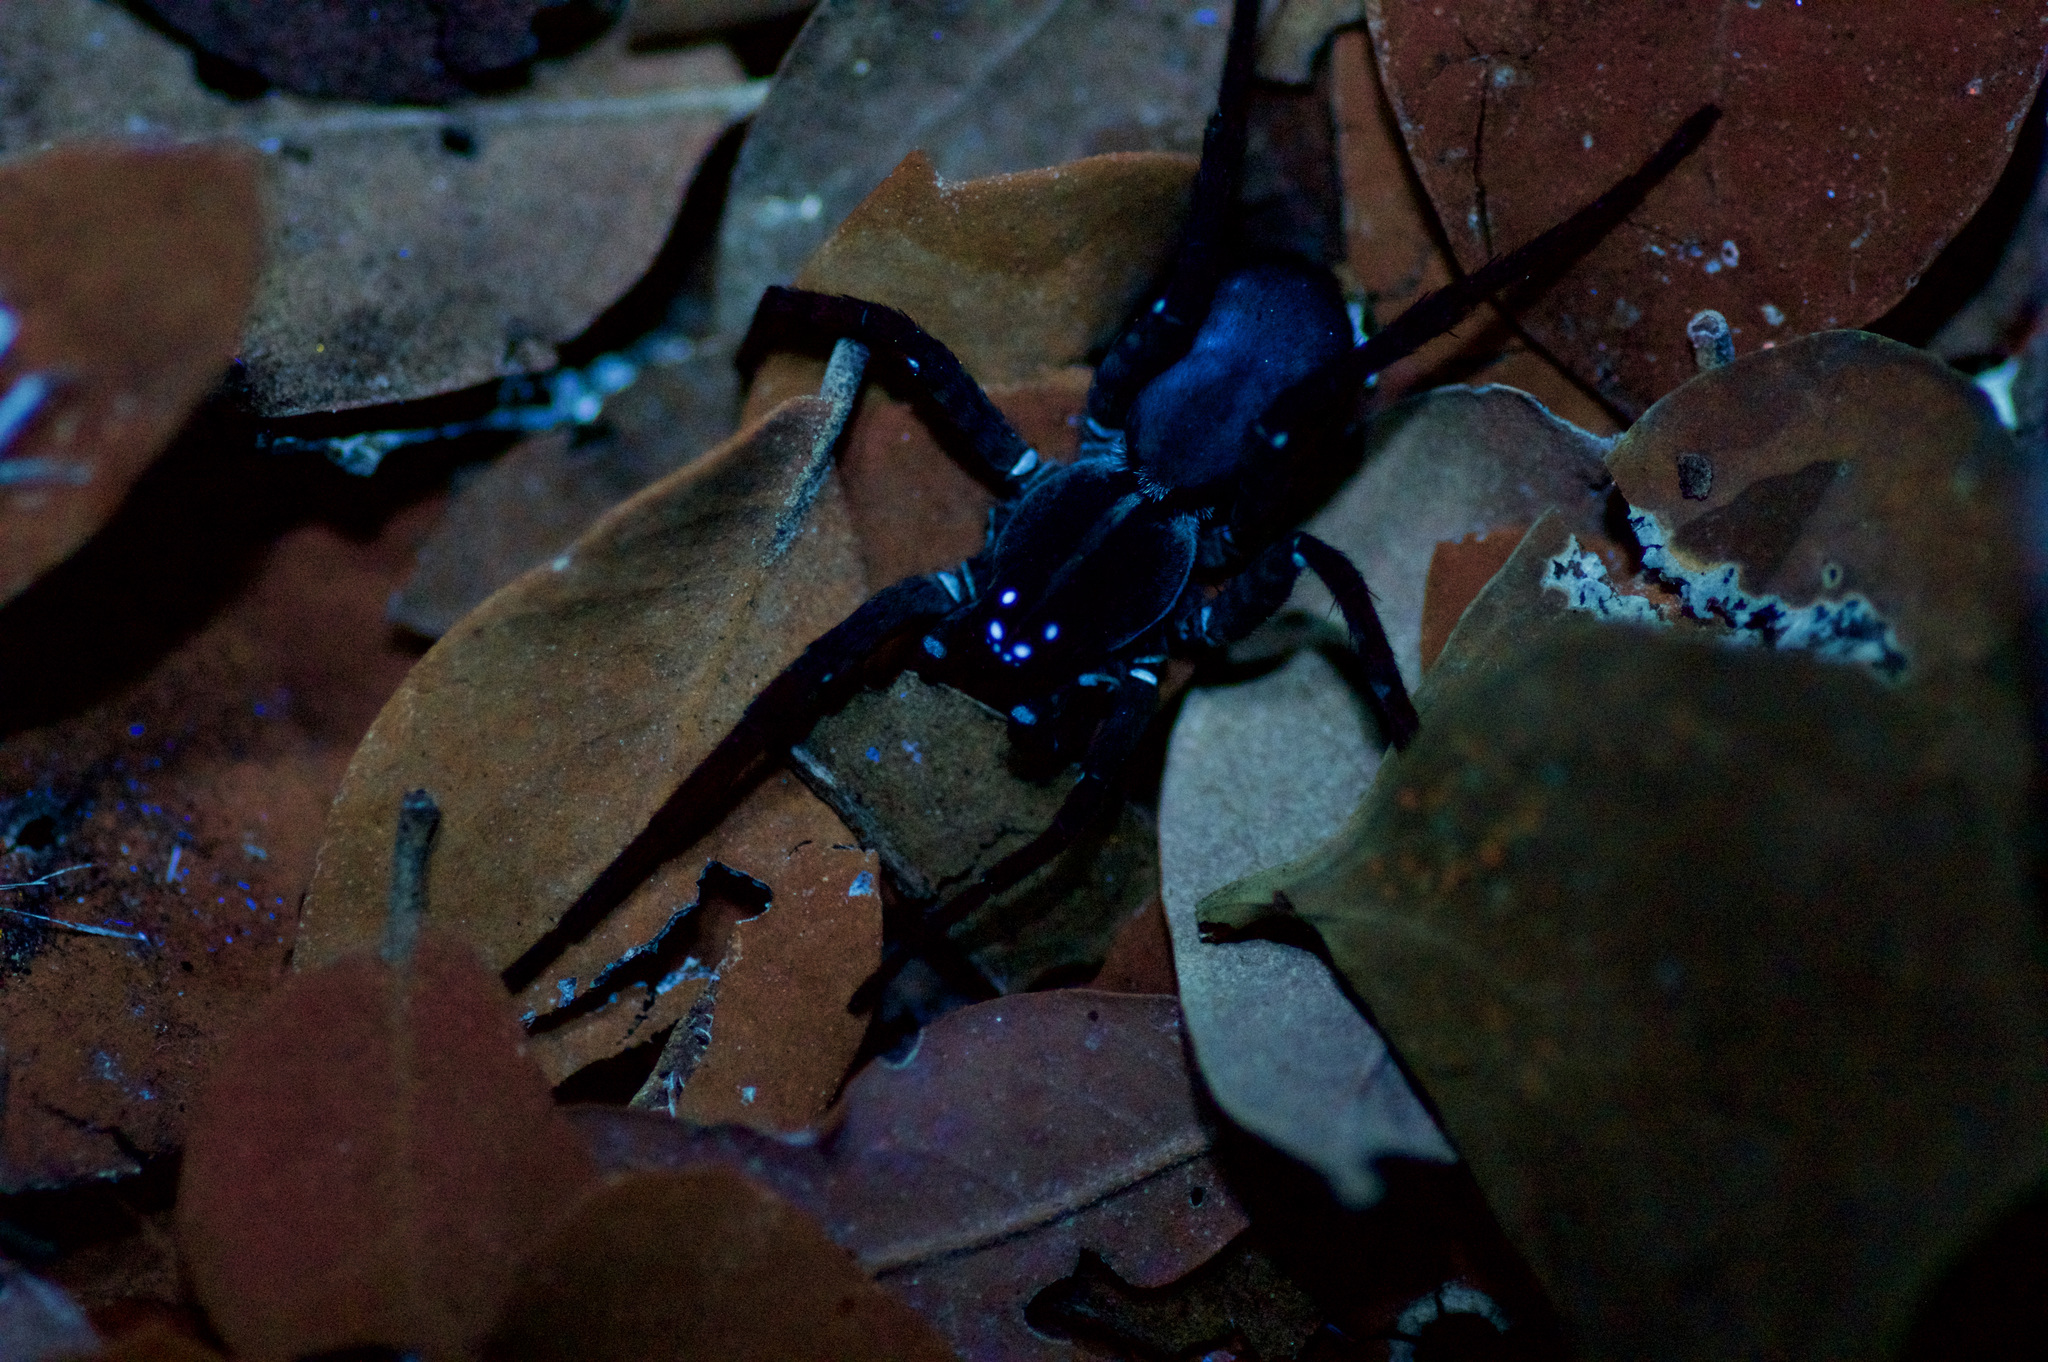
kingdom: Animalia
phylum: Arthropoda
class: Arachnida
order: Araneae
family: Lycosidae
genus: Tigrosa
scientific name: Tigrosa georgicola
